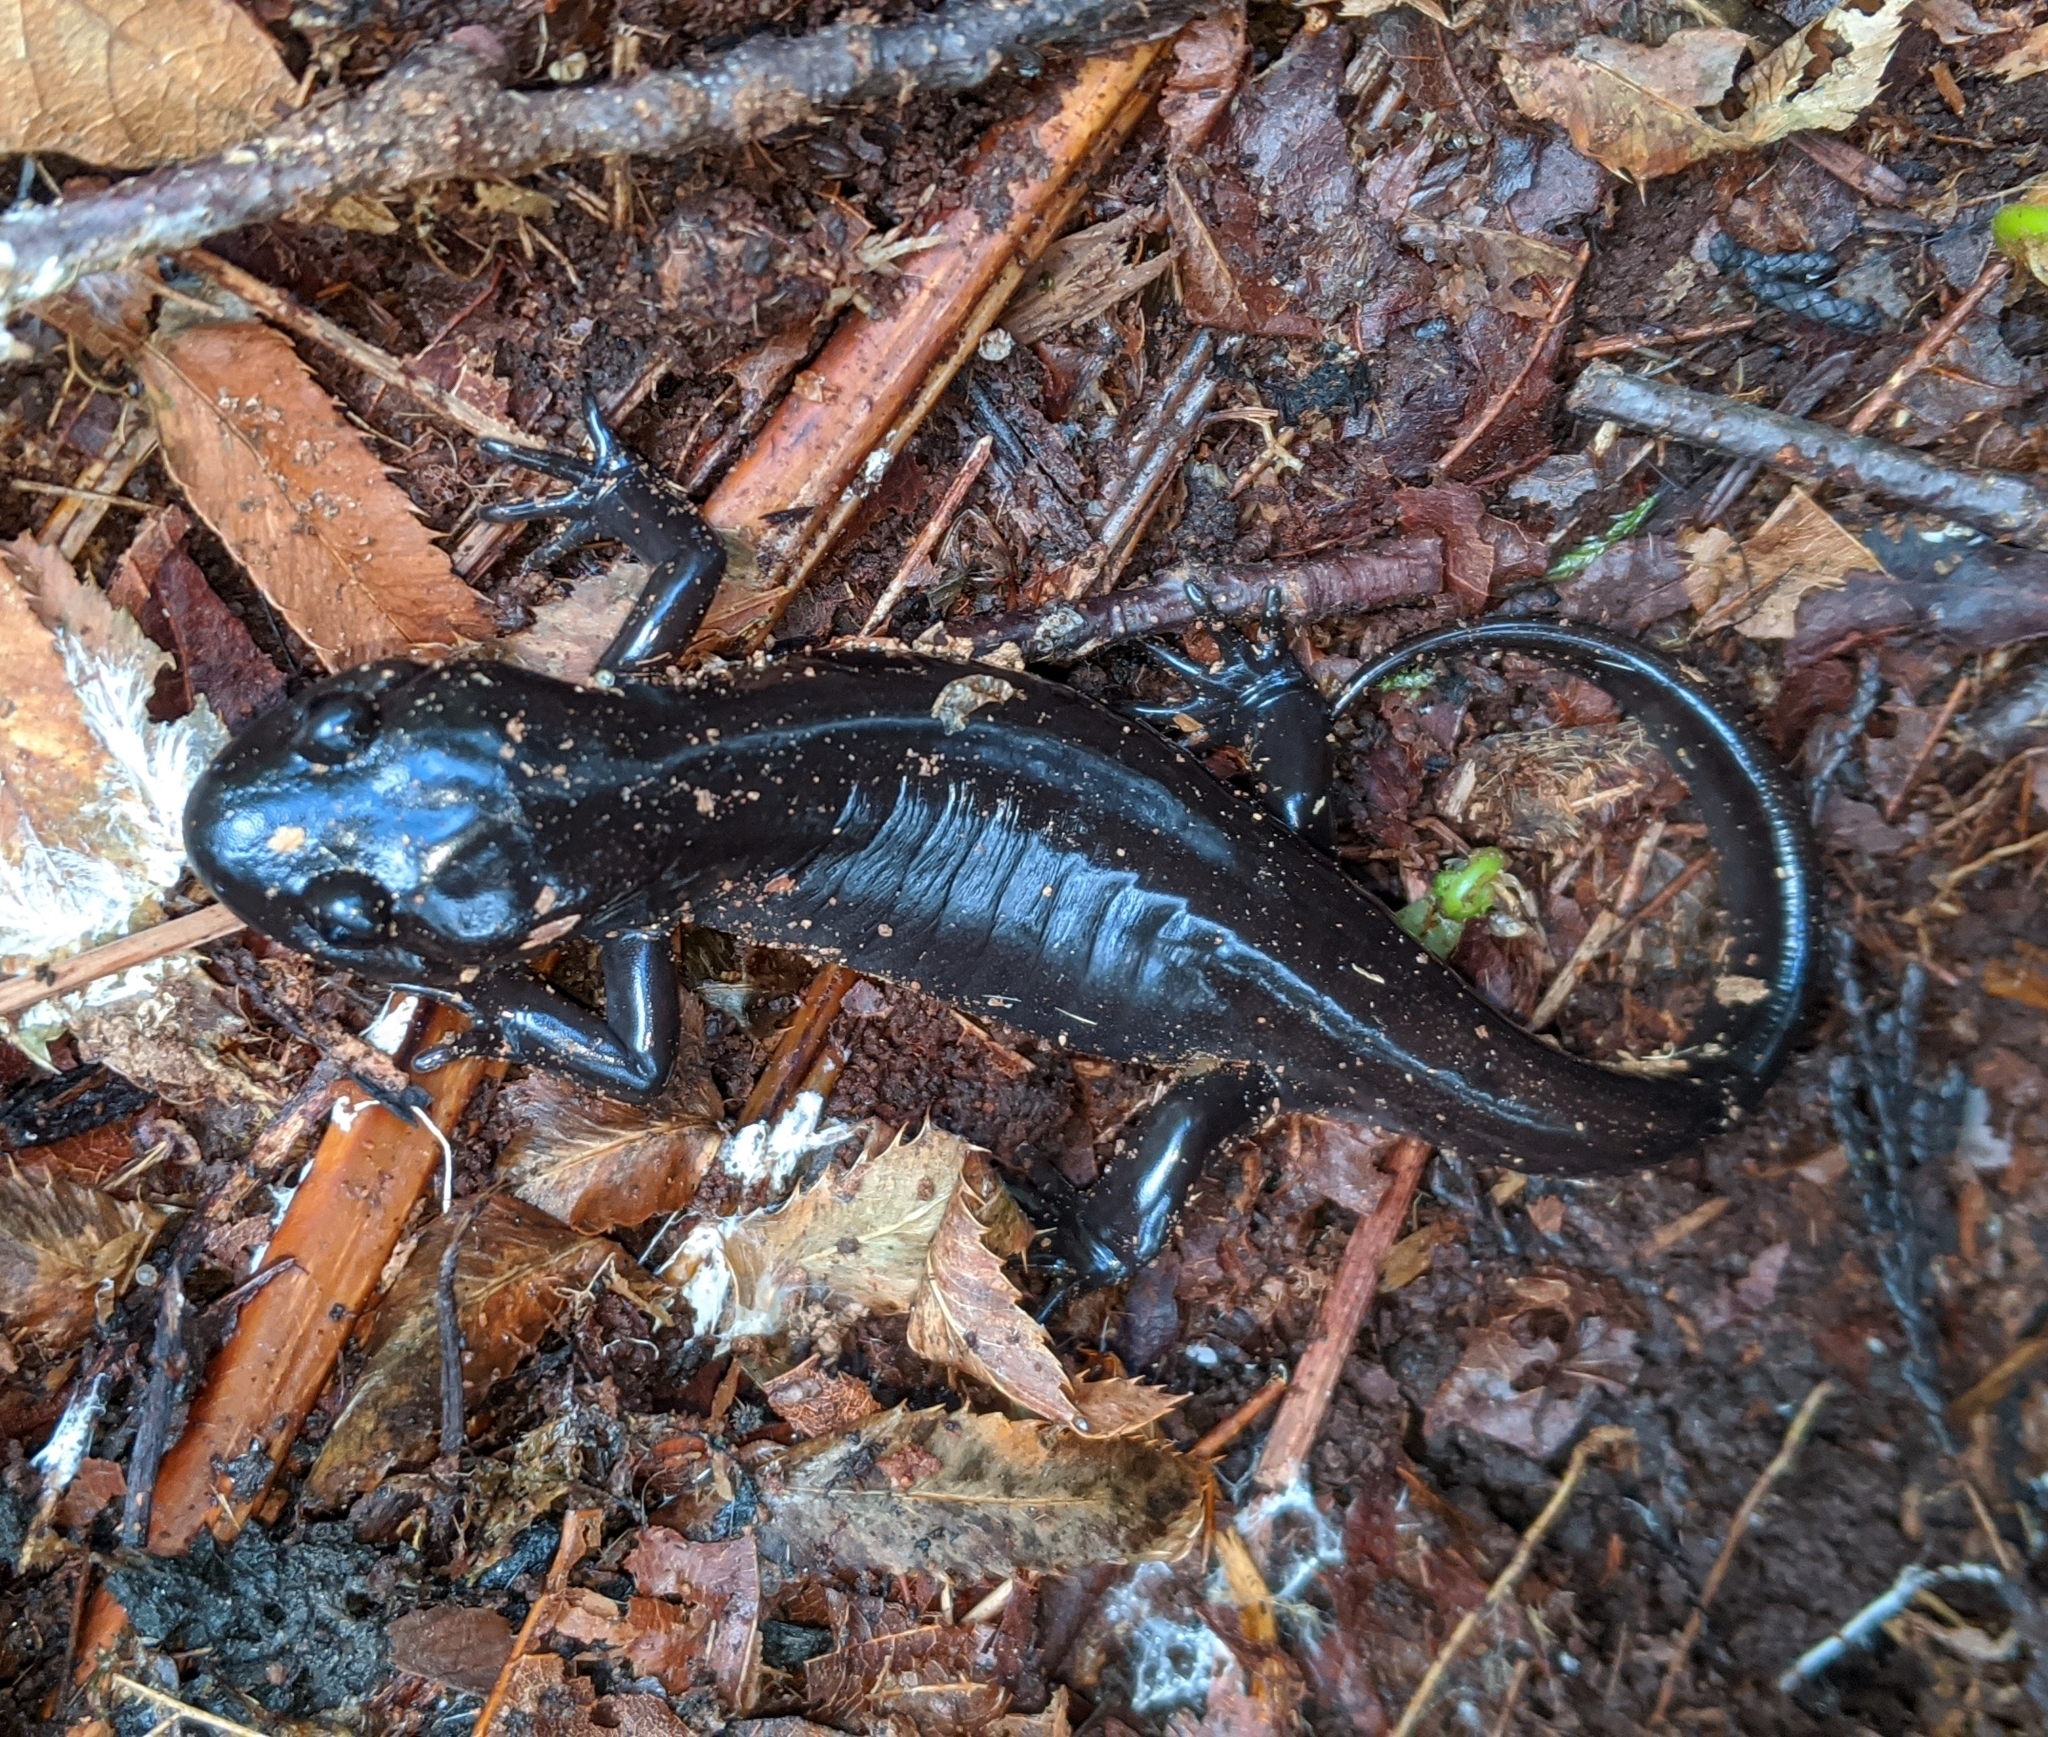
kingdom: Animalia
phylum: Chordata
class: Amphibia
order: Caudata
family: Ambystomatidae
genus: Ambystoma
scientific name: Ambystoma gracile
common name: Northwestern salamander
